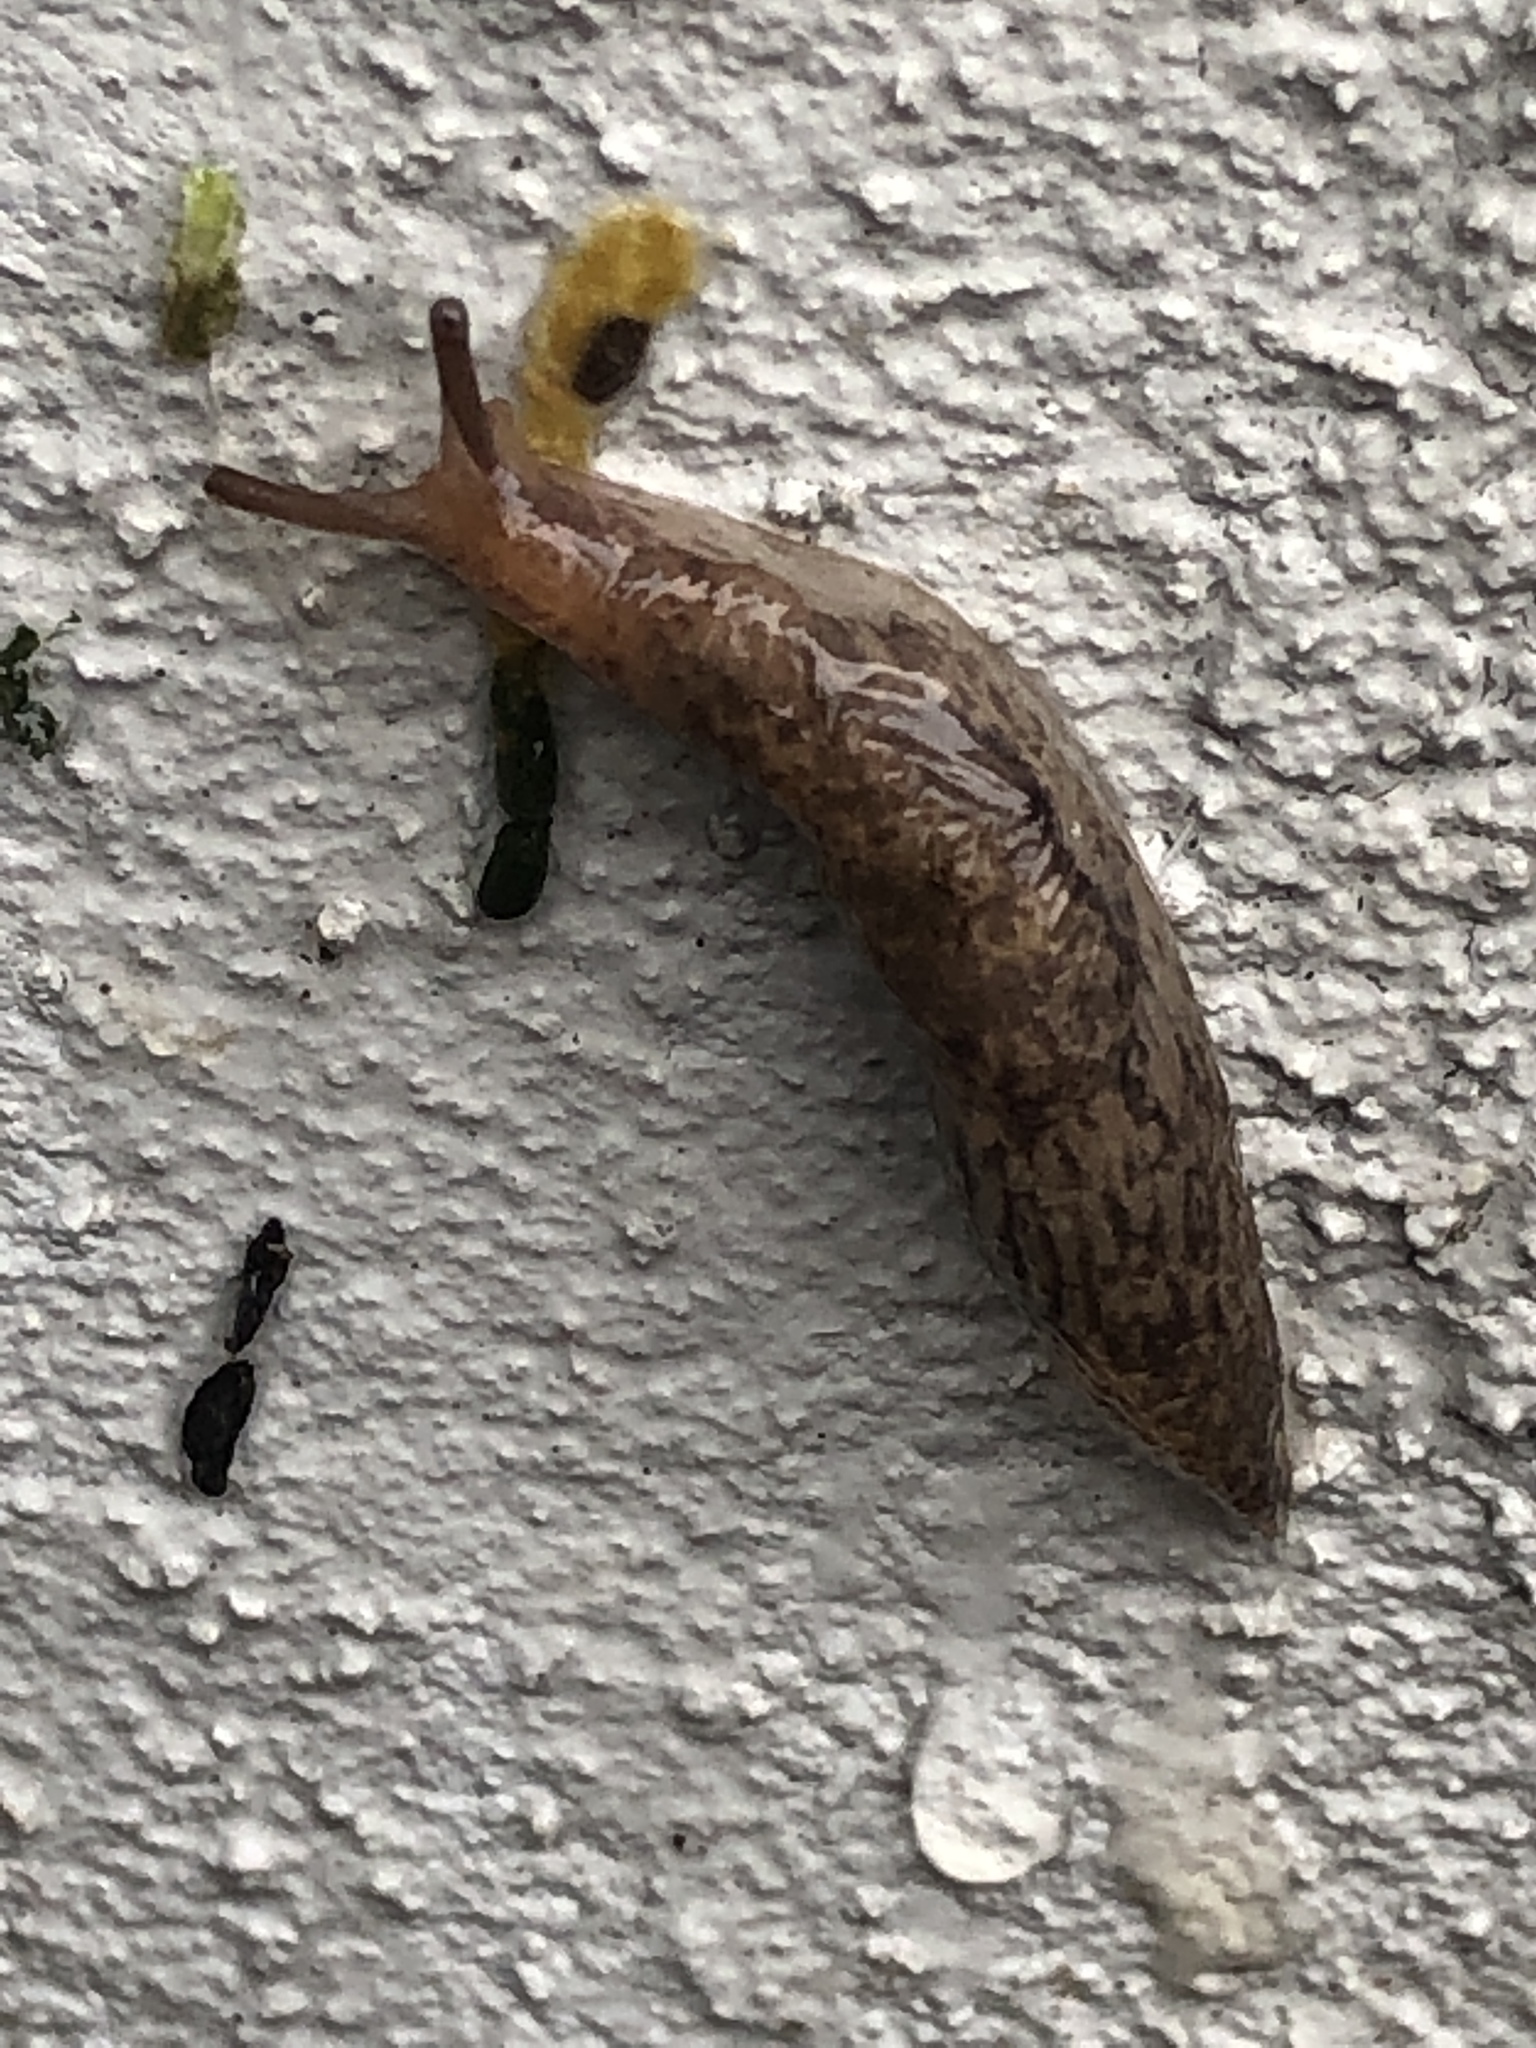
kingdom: Animalia
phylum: Mollusca
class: Gastropoda
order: Stylommatophora
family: Agriolimacidae
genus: Deroceras
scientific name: Deroceras reticulatum
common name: Gray field slug
